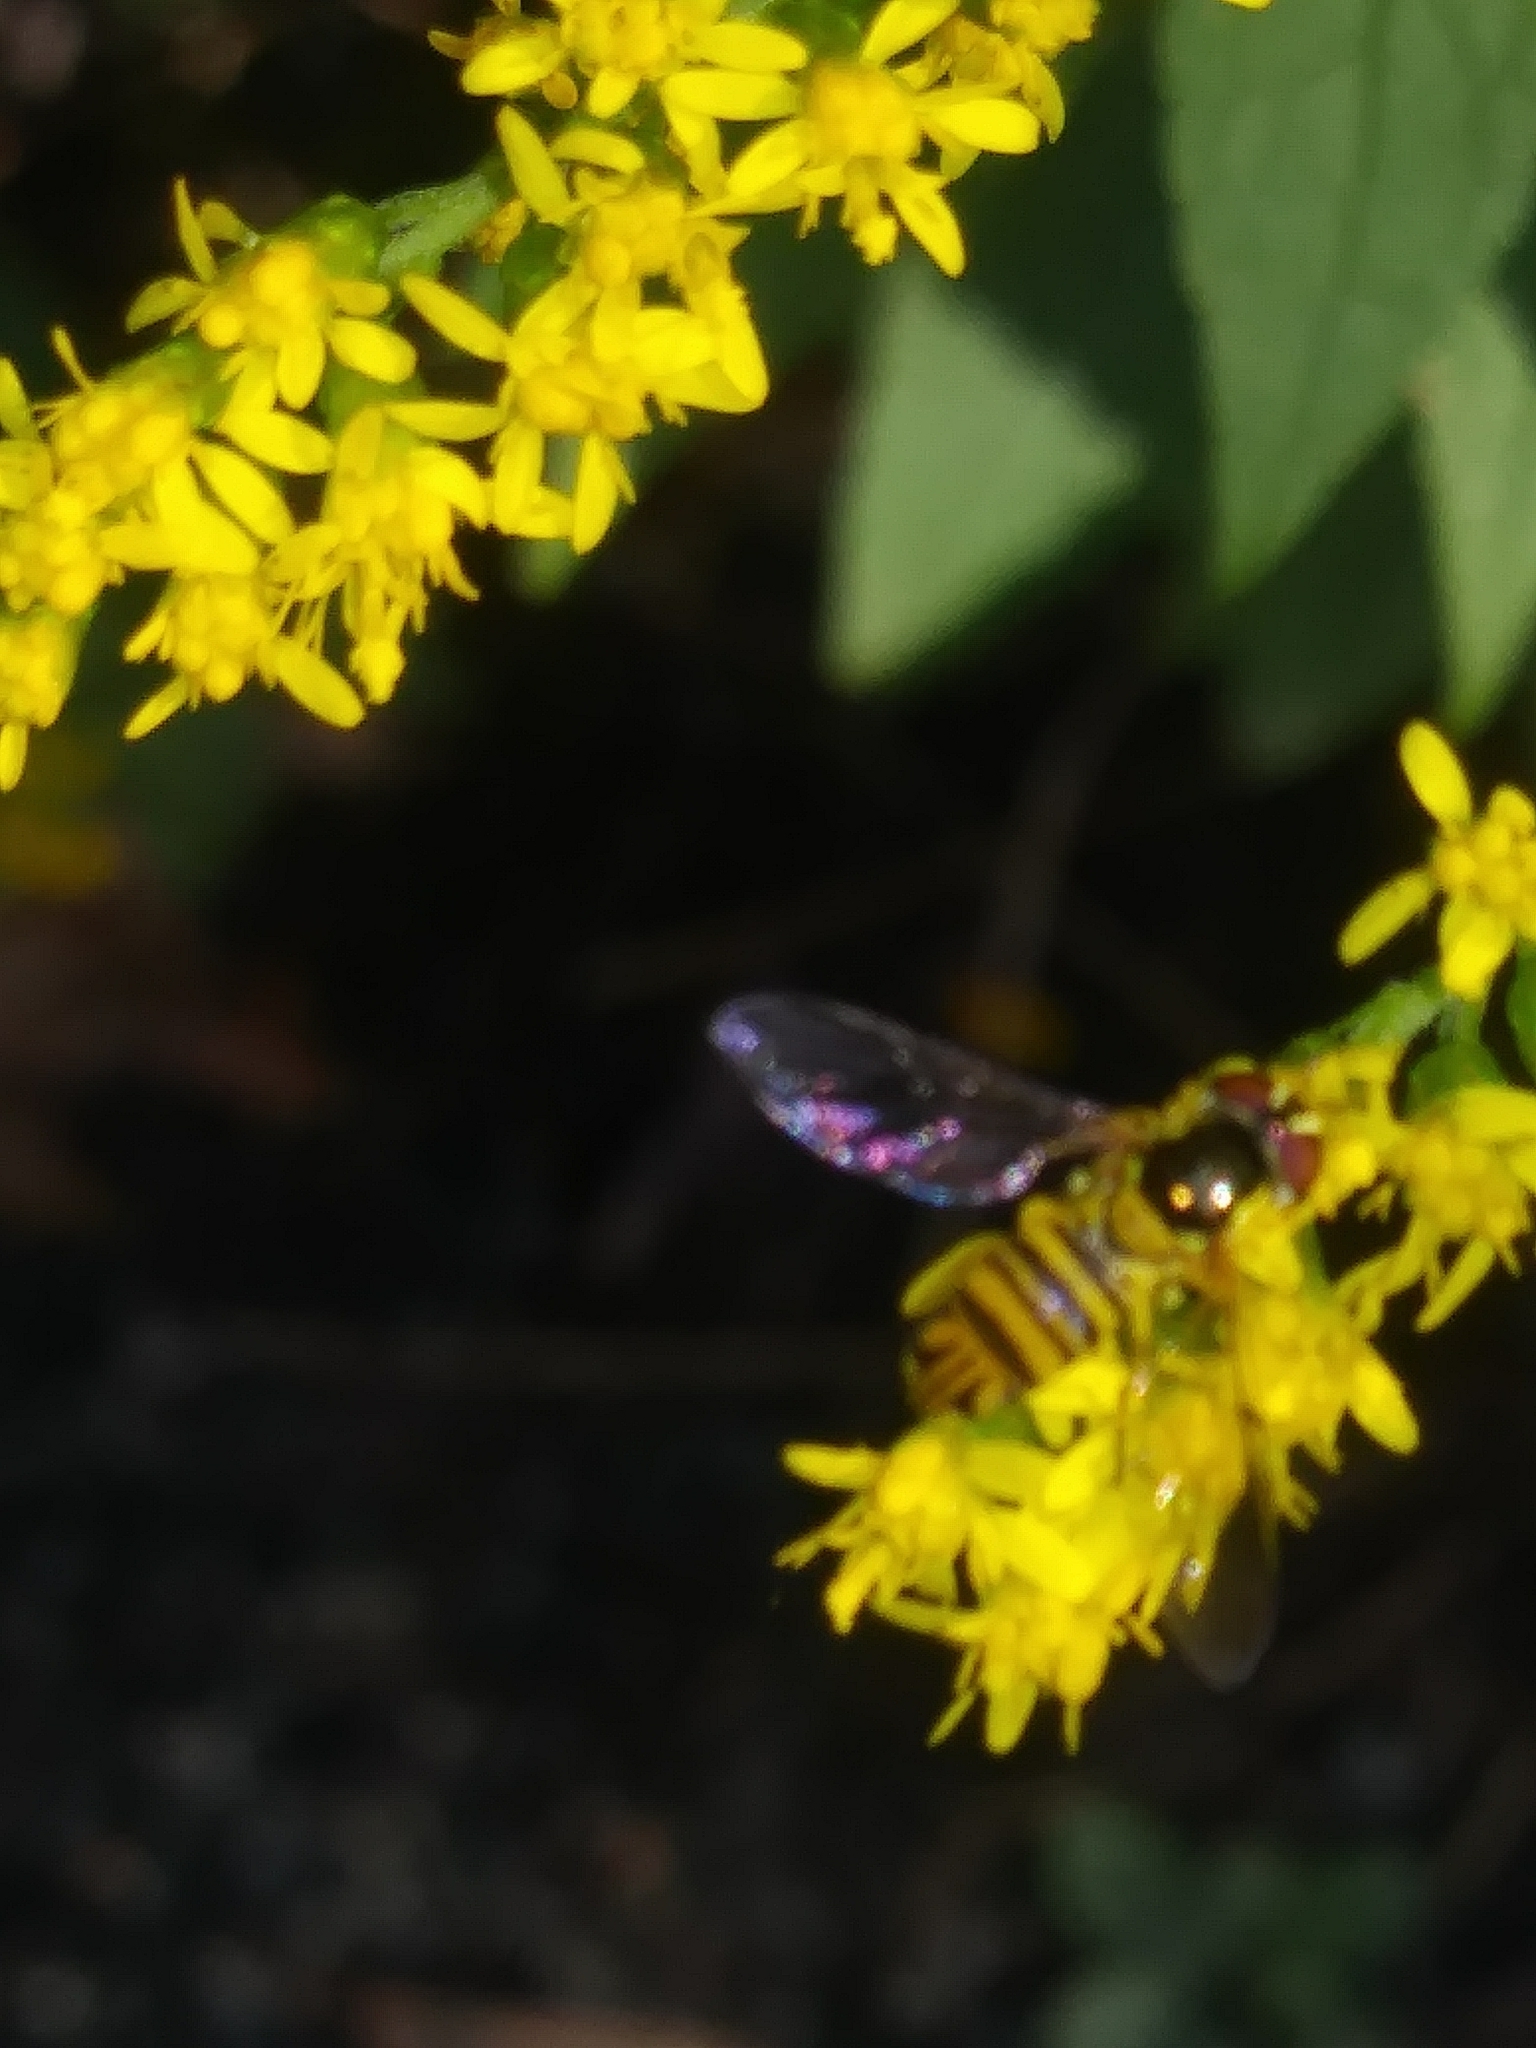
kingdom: Animalia
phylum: Arthropoda
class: Insecta
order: Diptera
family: Syrphidae
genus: Allograpta
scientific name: Allograpta obliqua
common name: Common oblique syrphid
